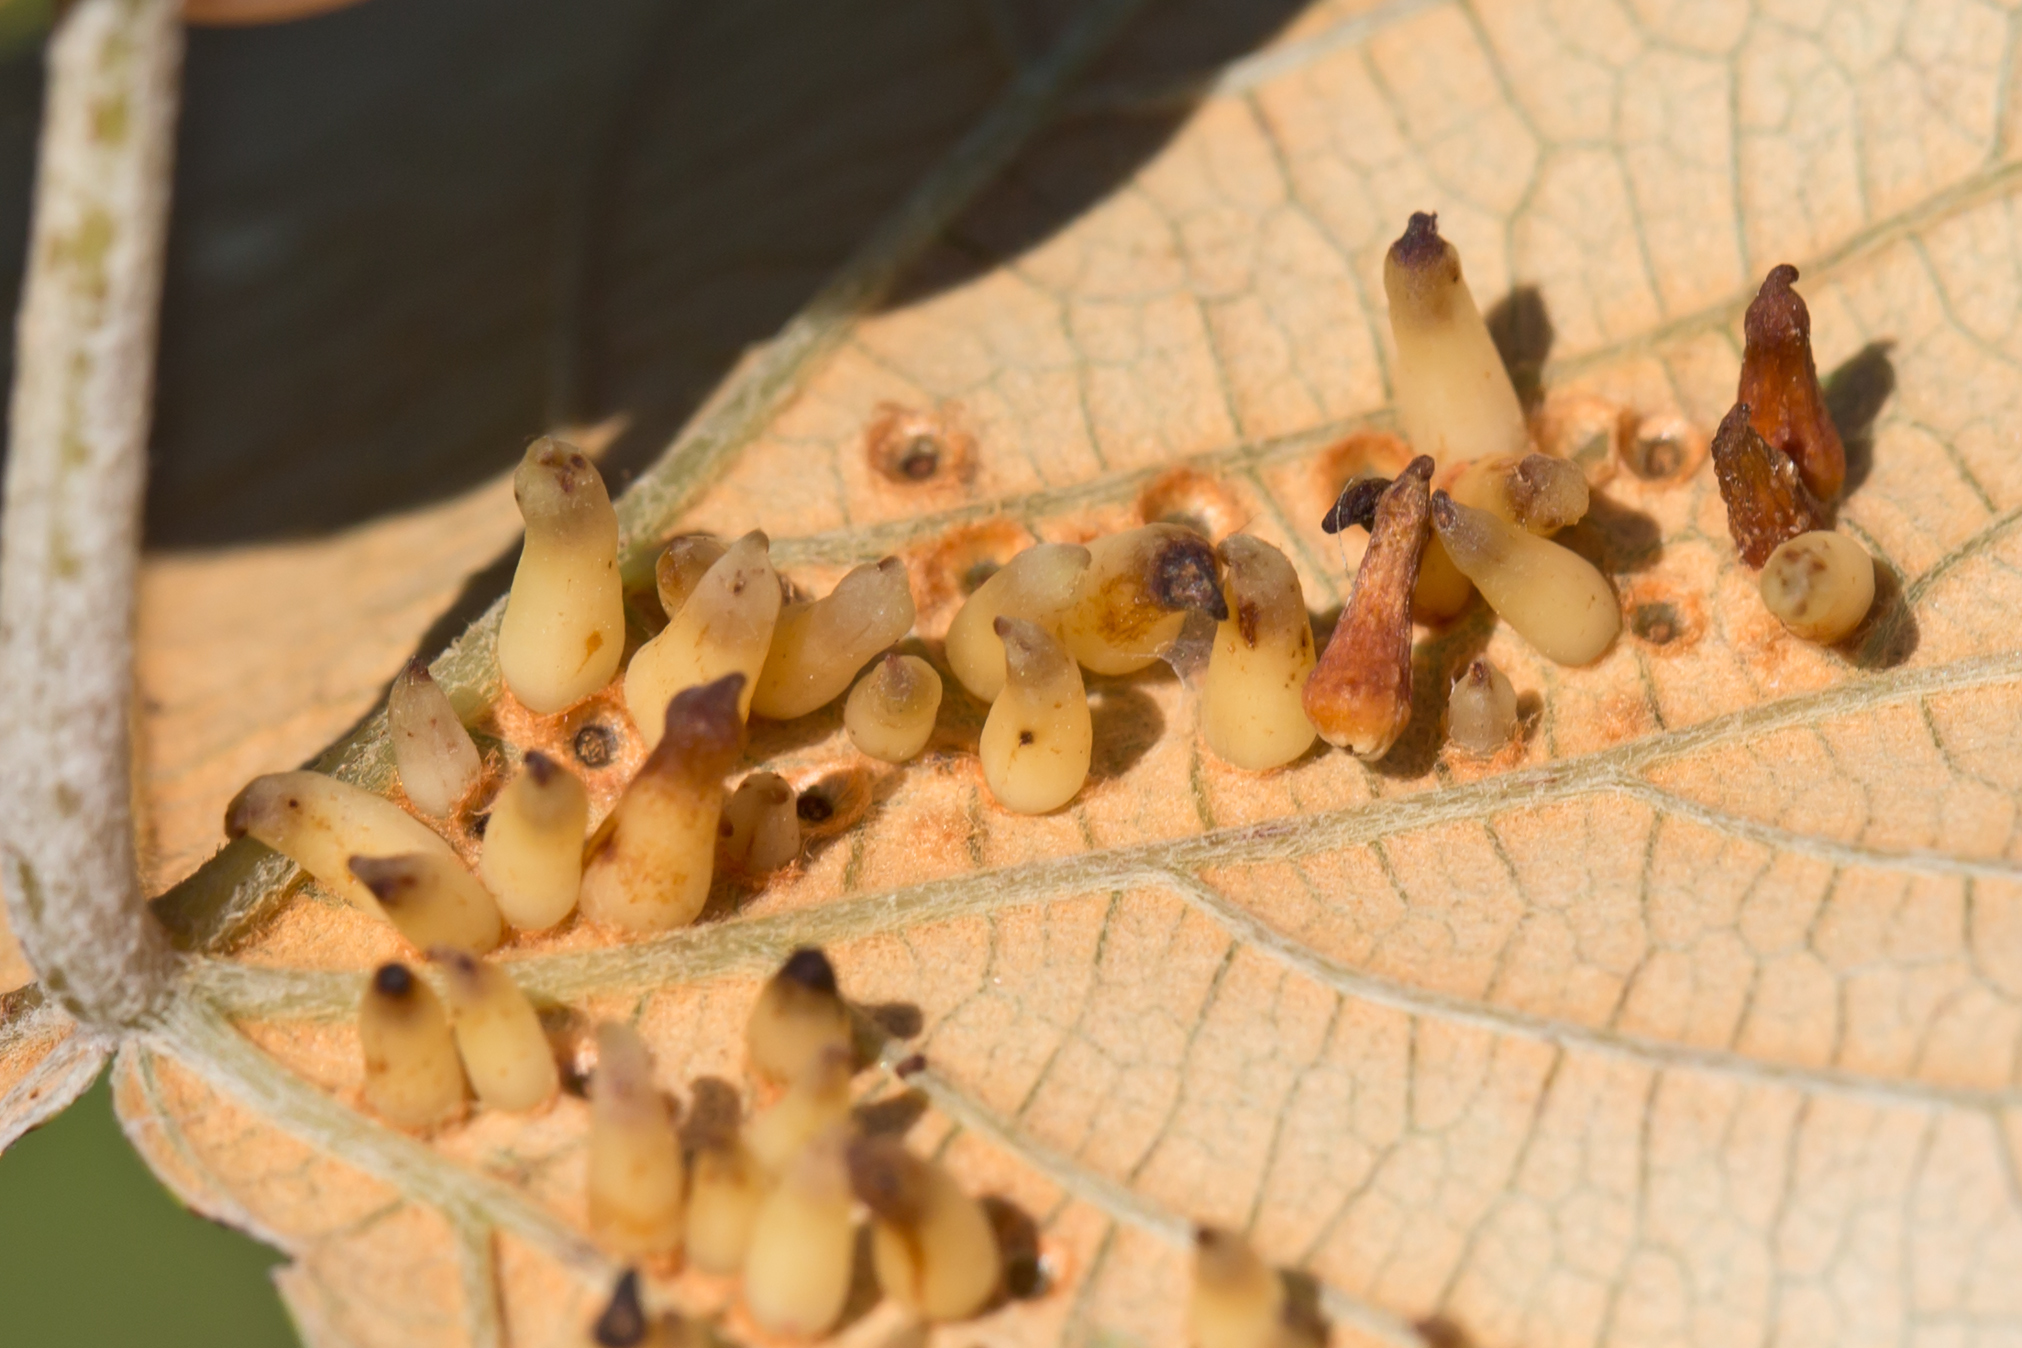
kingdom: Animalia
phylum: Arthropoda
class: Insecta
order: Diptera
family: Cecidomyiidae
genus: Ampelomyia
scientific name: Ampelomyia viticola
